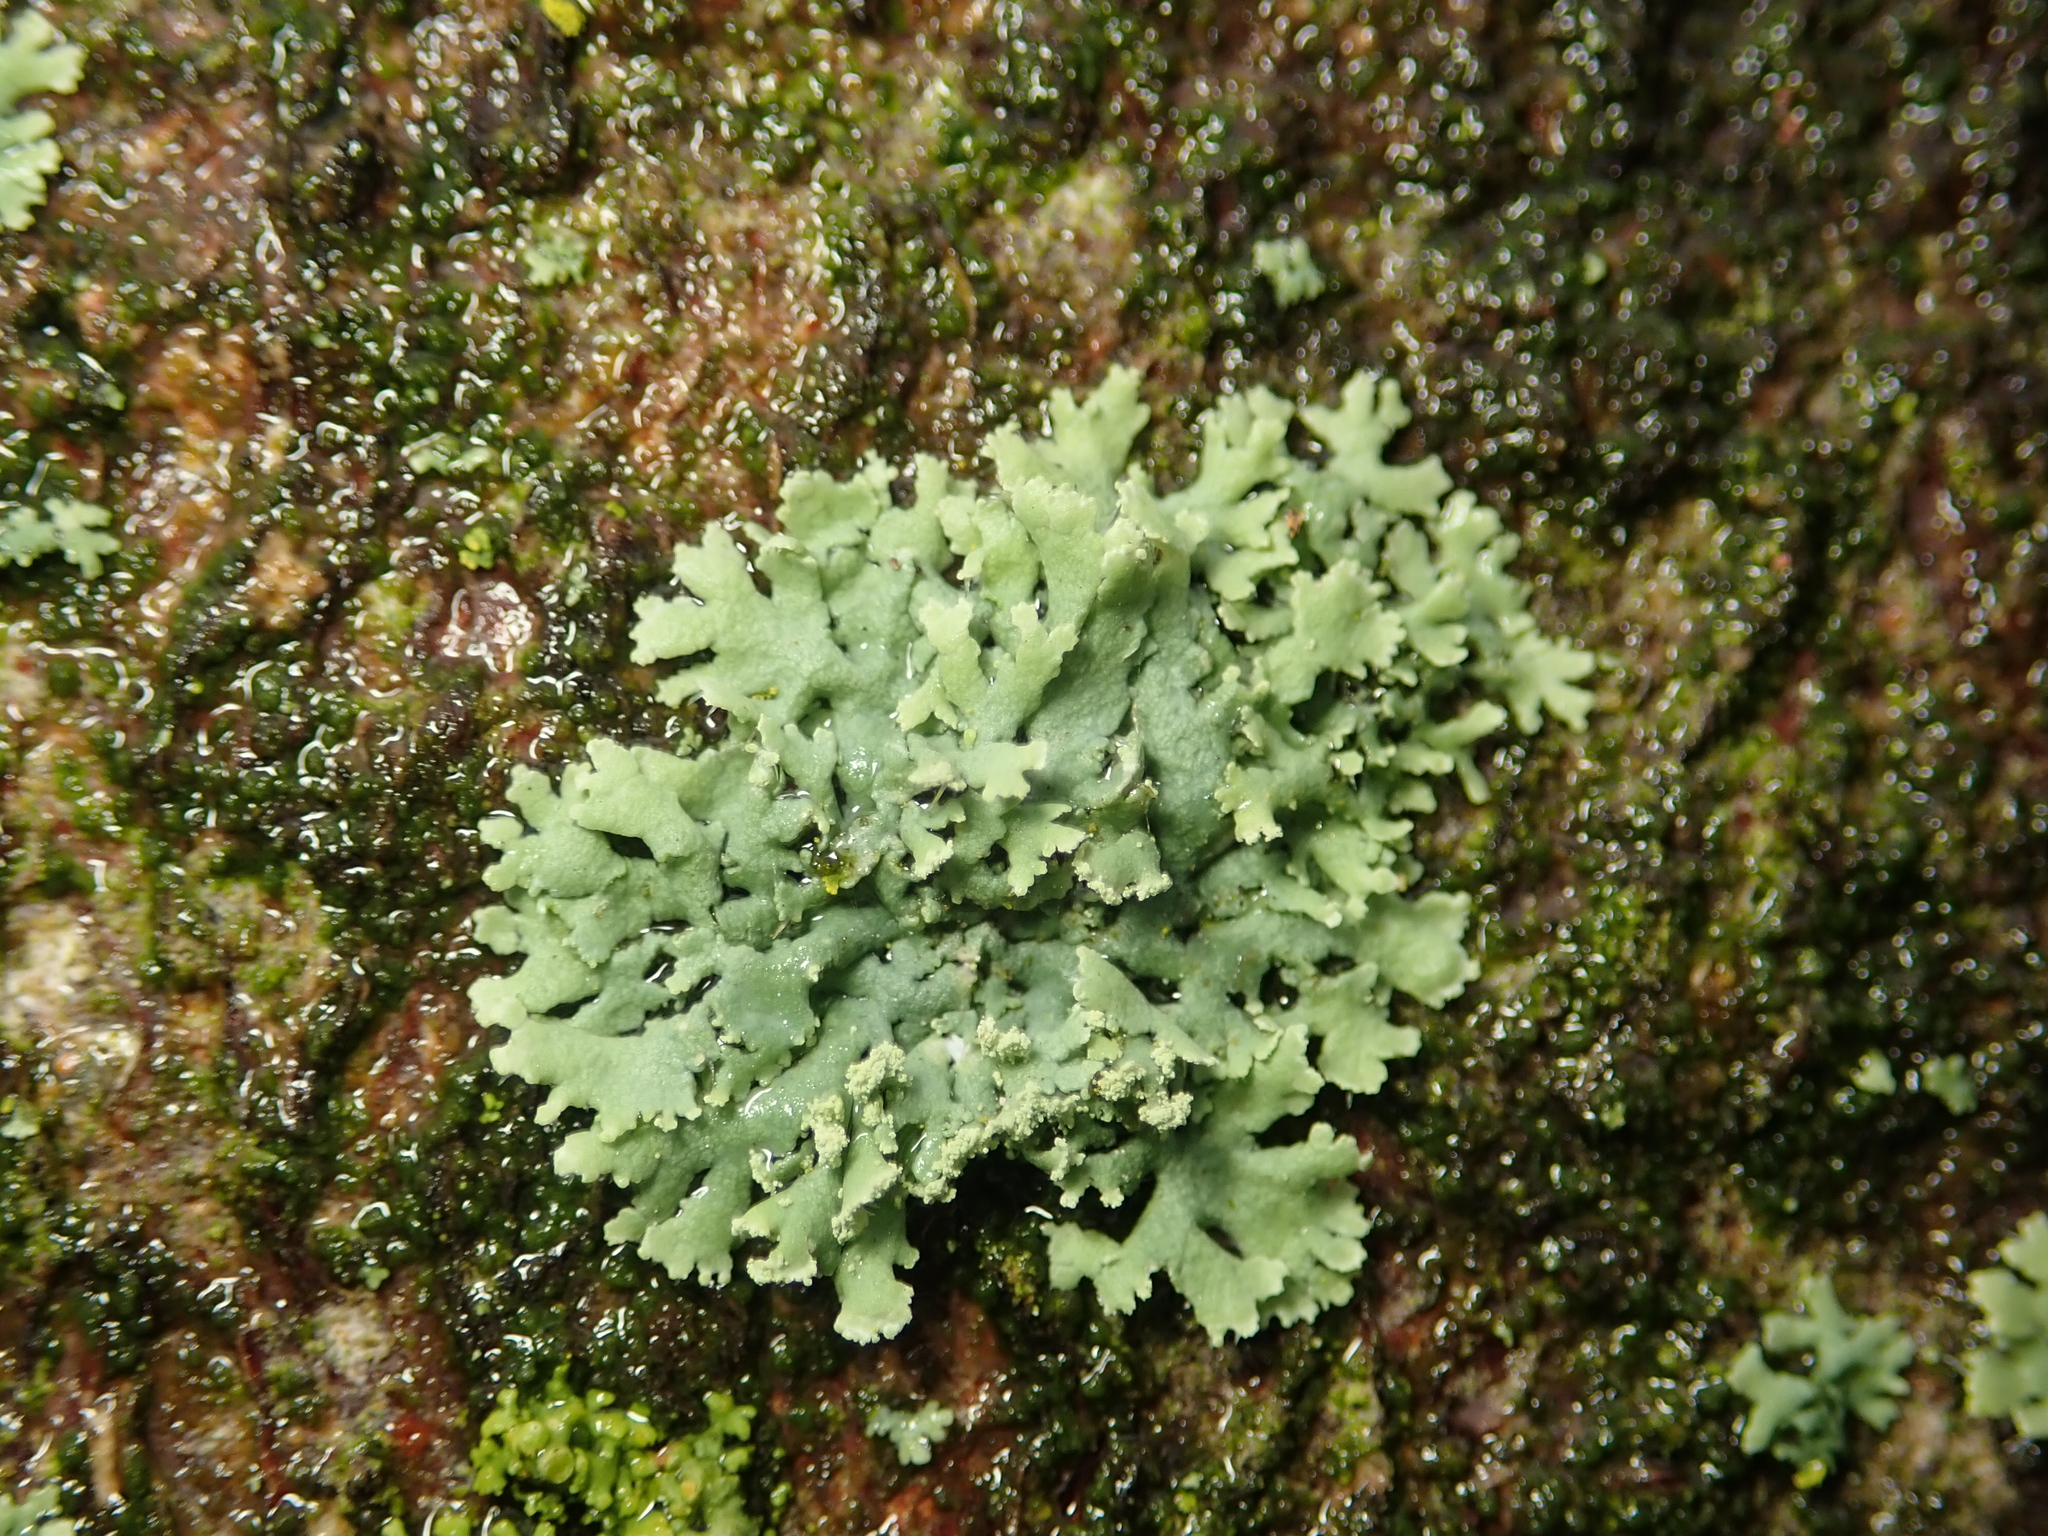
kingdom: Fungi
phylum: Ascomycota
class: Lecanoromycetes
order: Caliciales
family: Physciaceae
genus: Physcia
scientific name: Physcia dubia
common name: Powder-tipped rosette lichen
